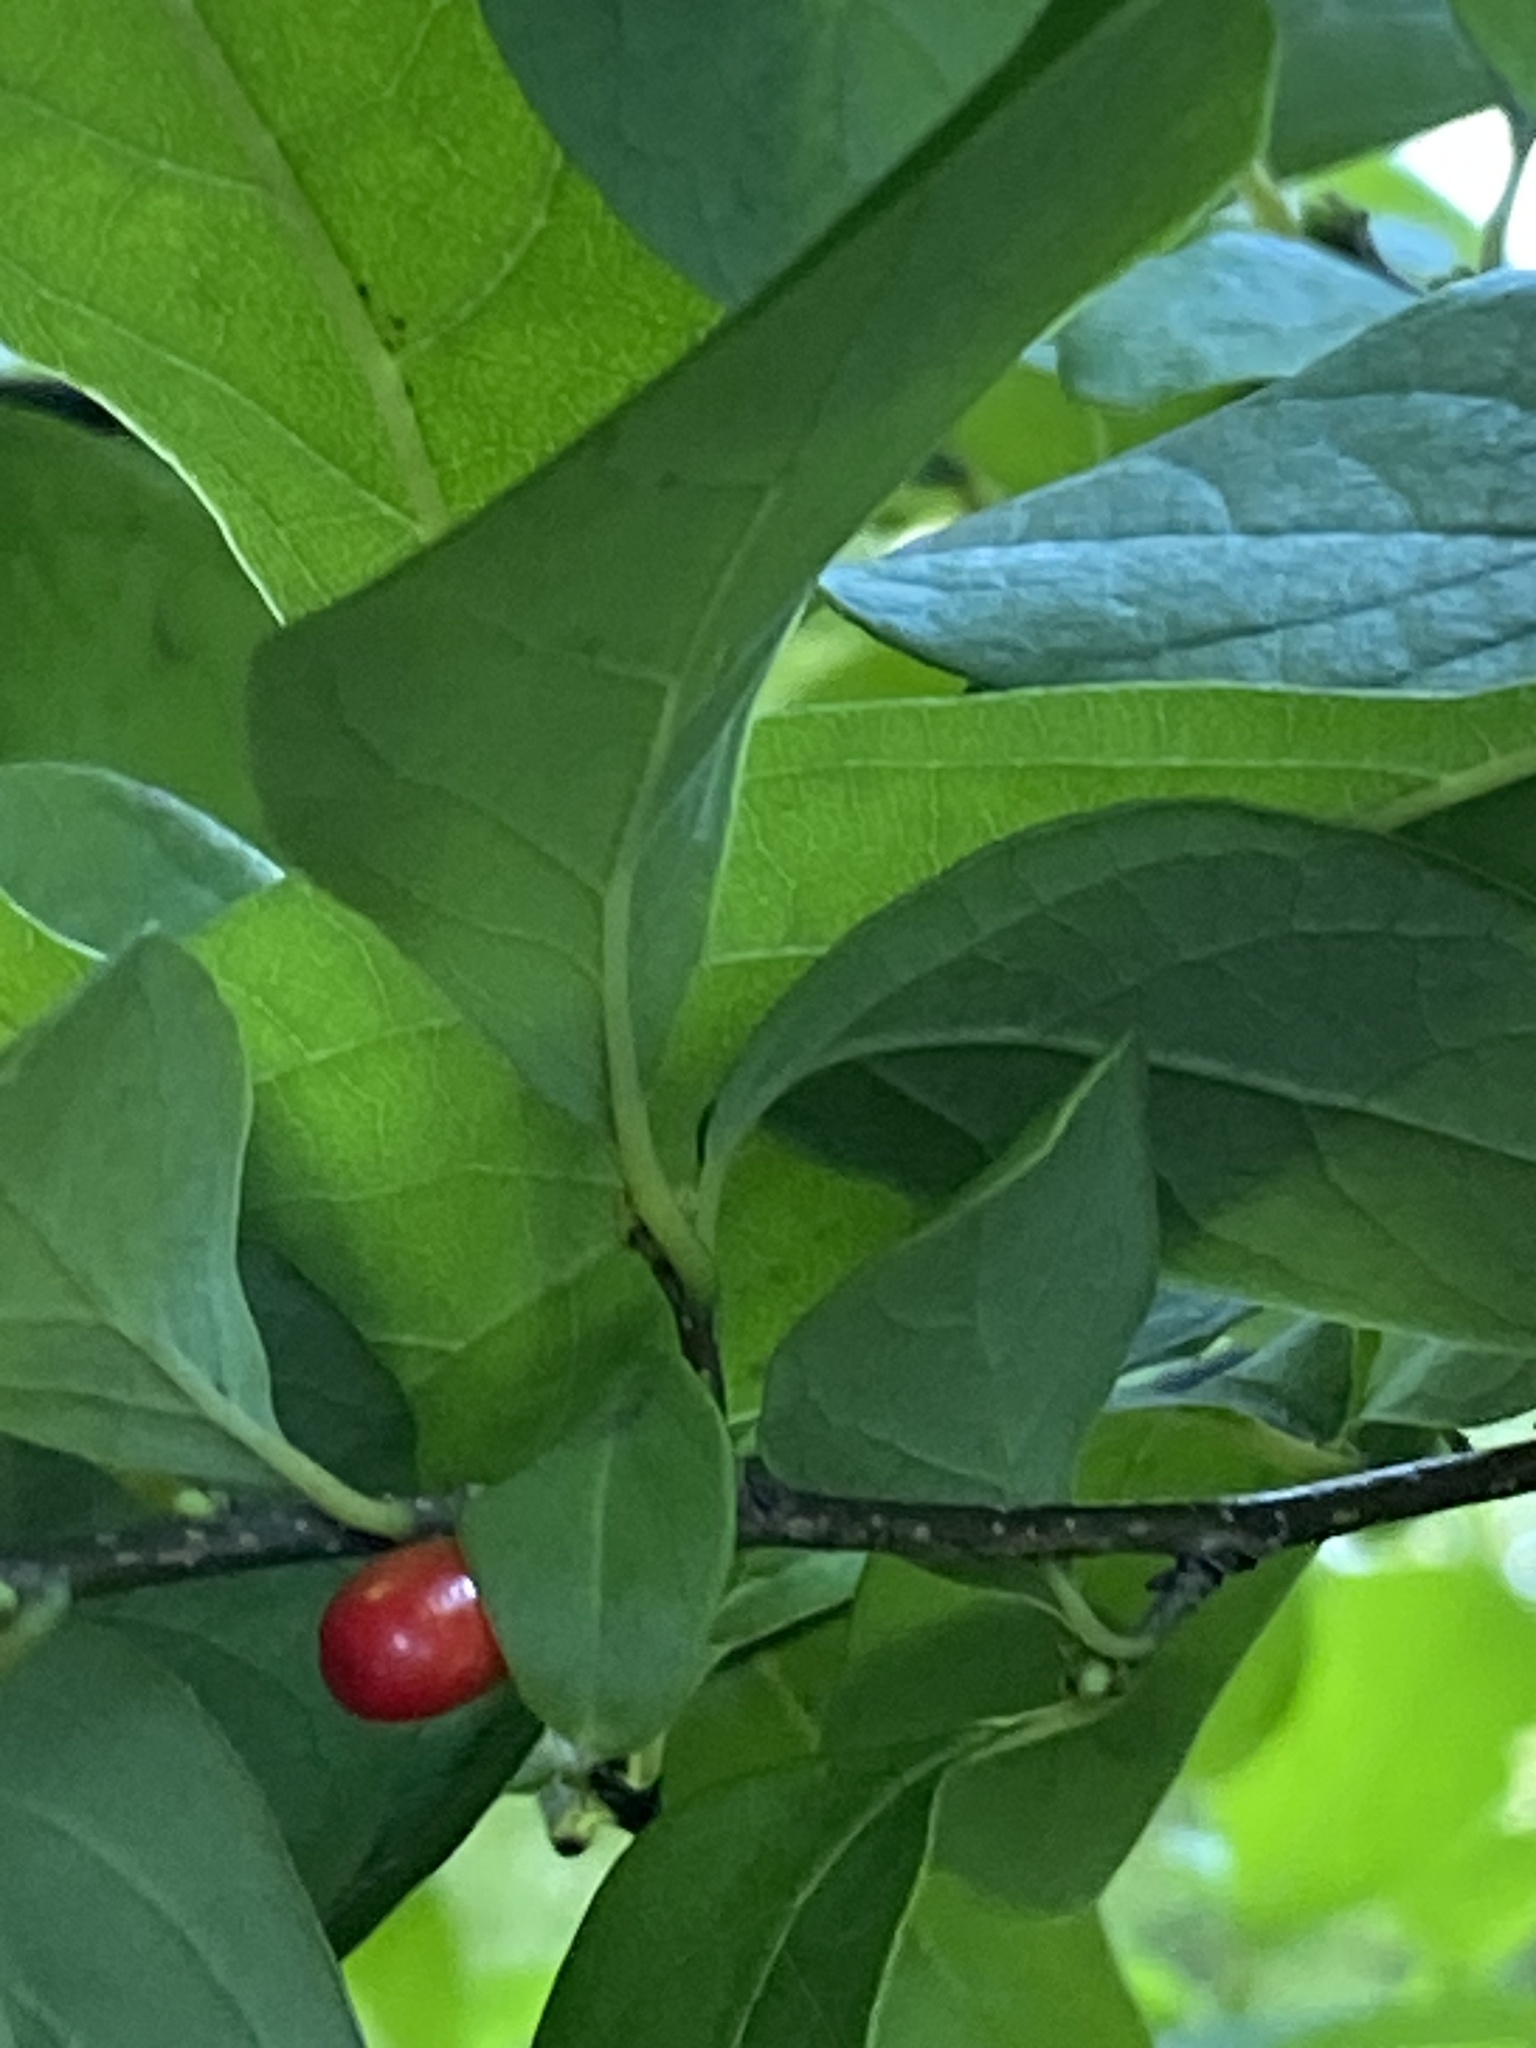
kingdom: Plantae
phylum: Tracheophyta
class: Magnoliopsida
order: Laurales
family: Lauraceae
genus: Lindera
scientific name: Lindera benzoin
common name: Spicebush
